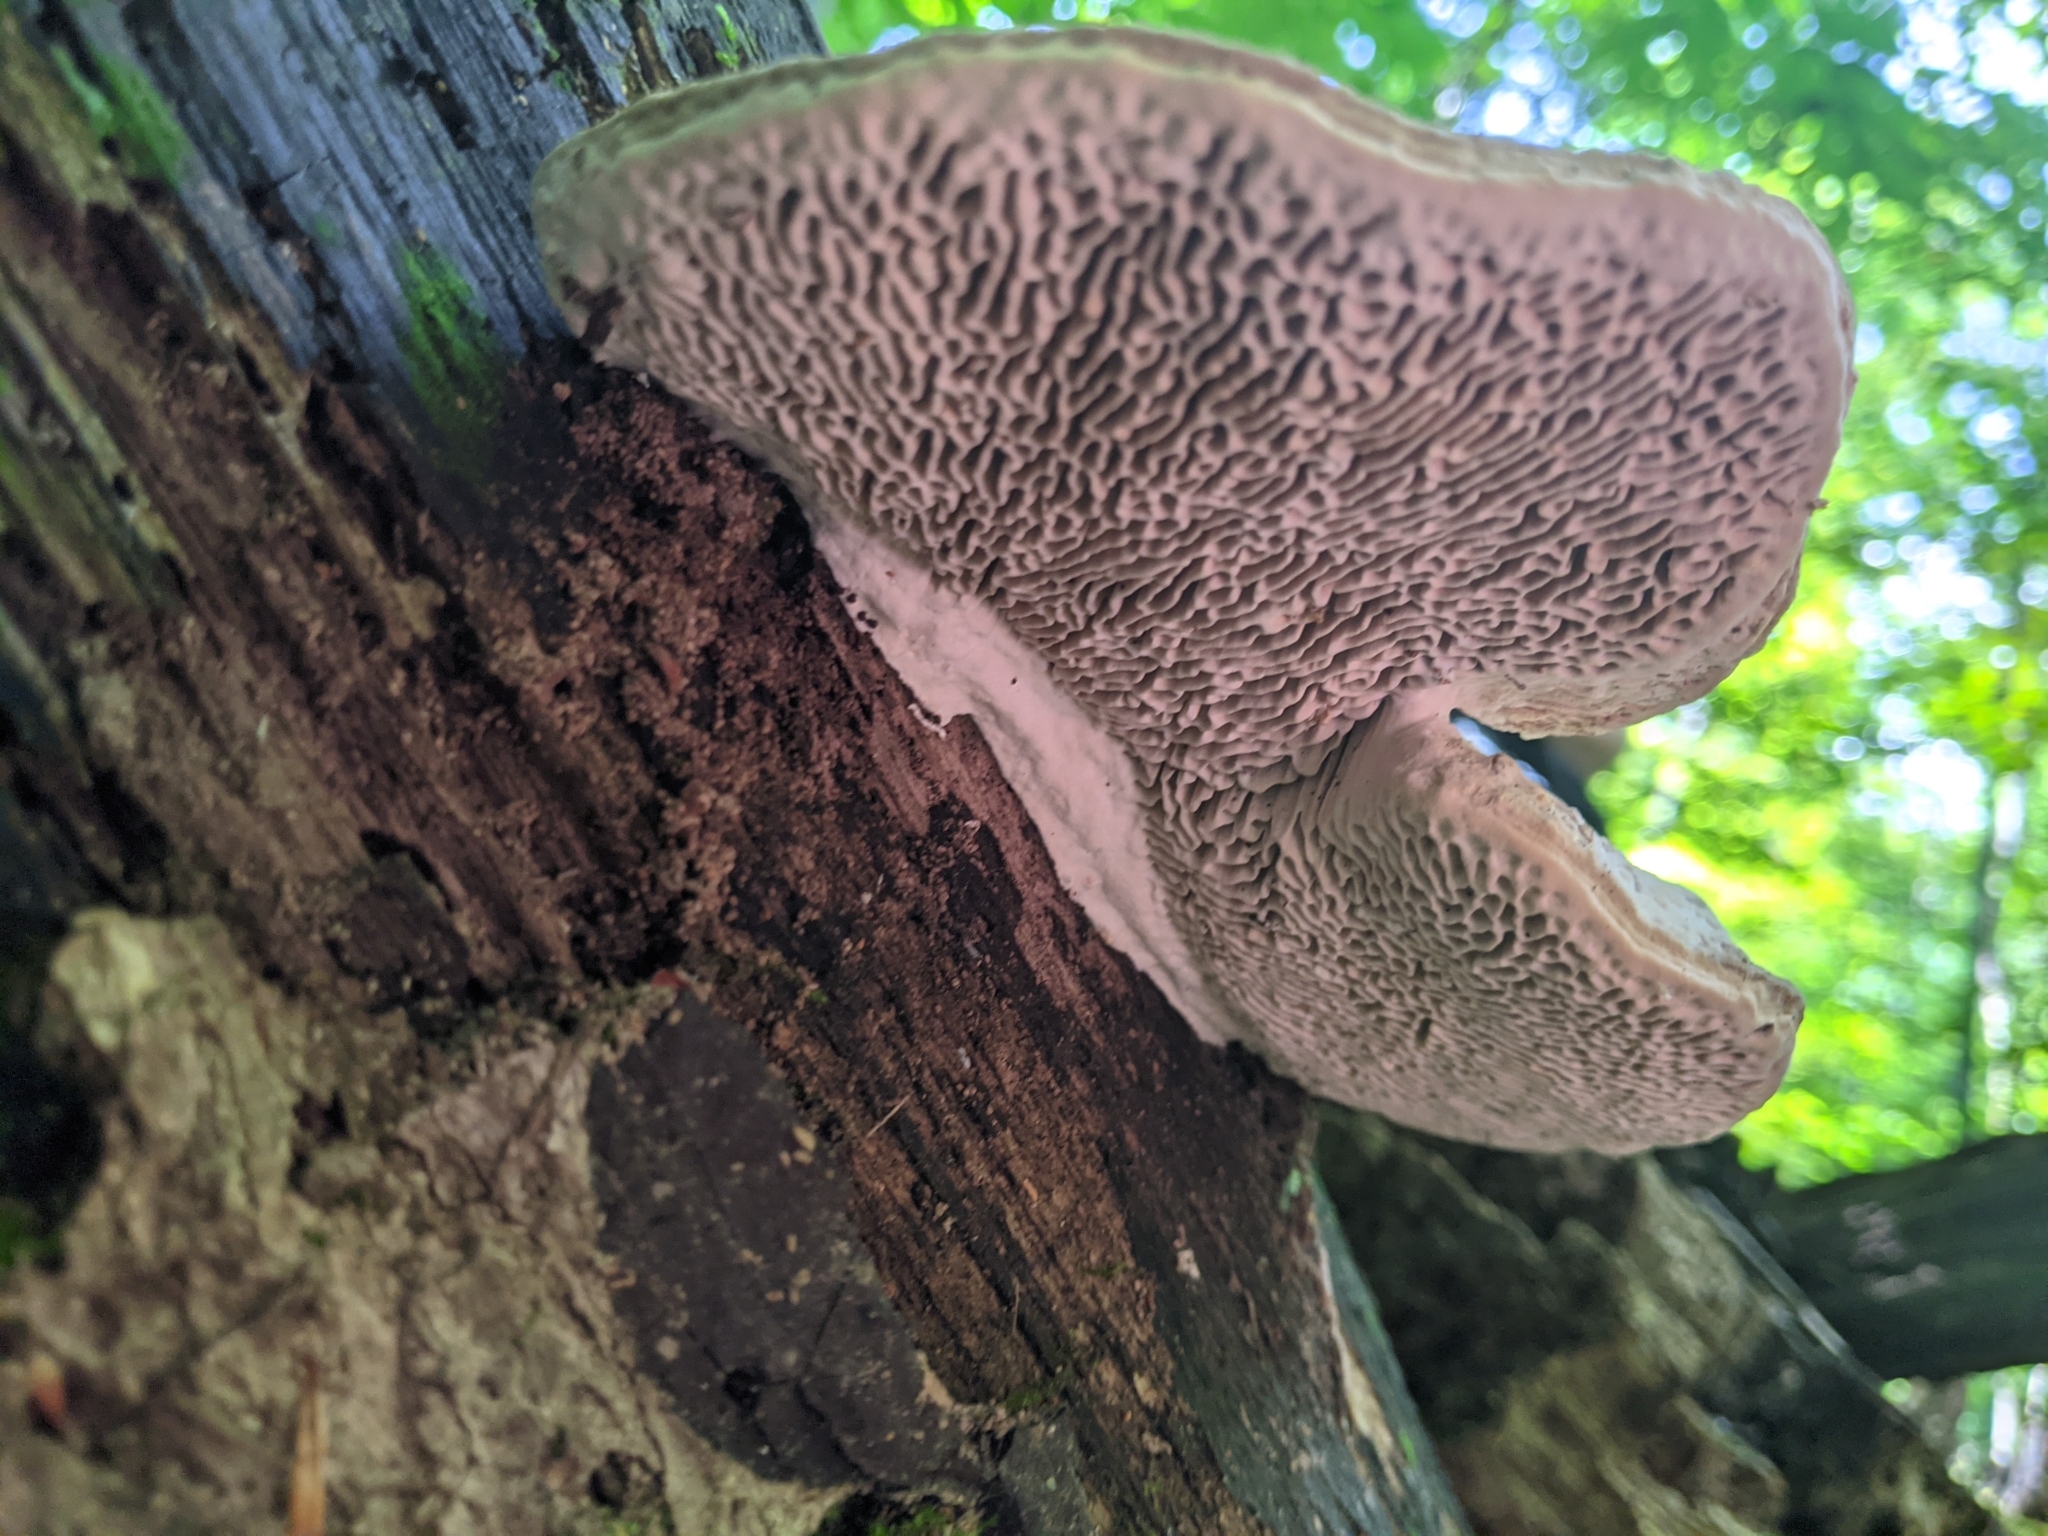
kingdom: Fungi
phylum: Basidiomycota
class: Agaricomycetes
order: Polyporales
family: Fomitopsidaceae
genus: Fomitopsis
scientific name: Fomitopsis
